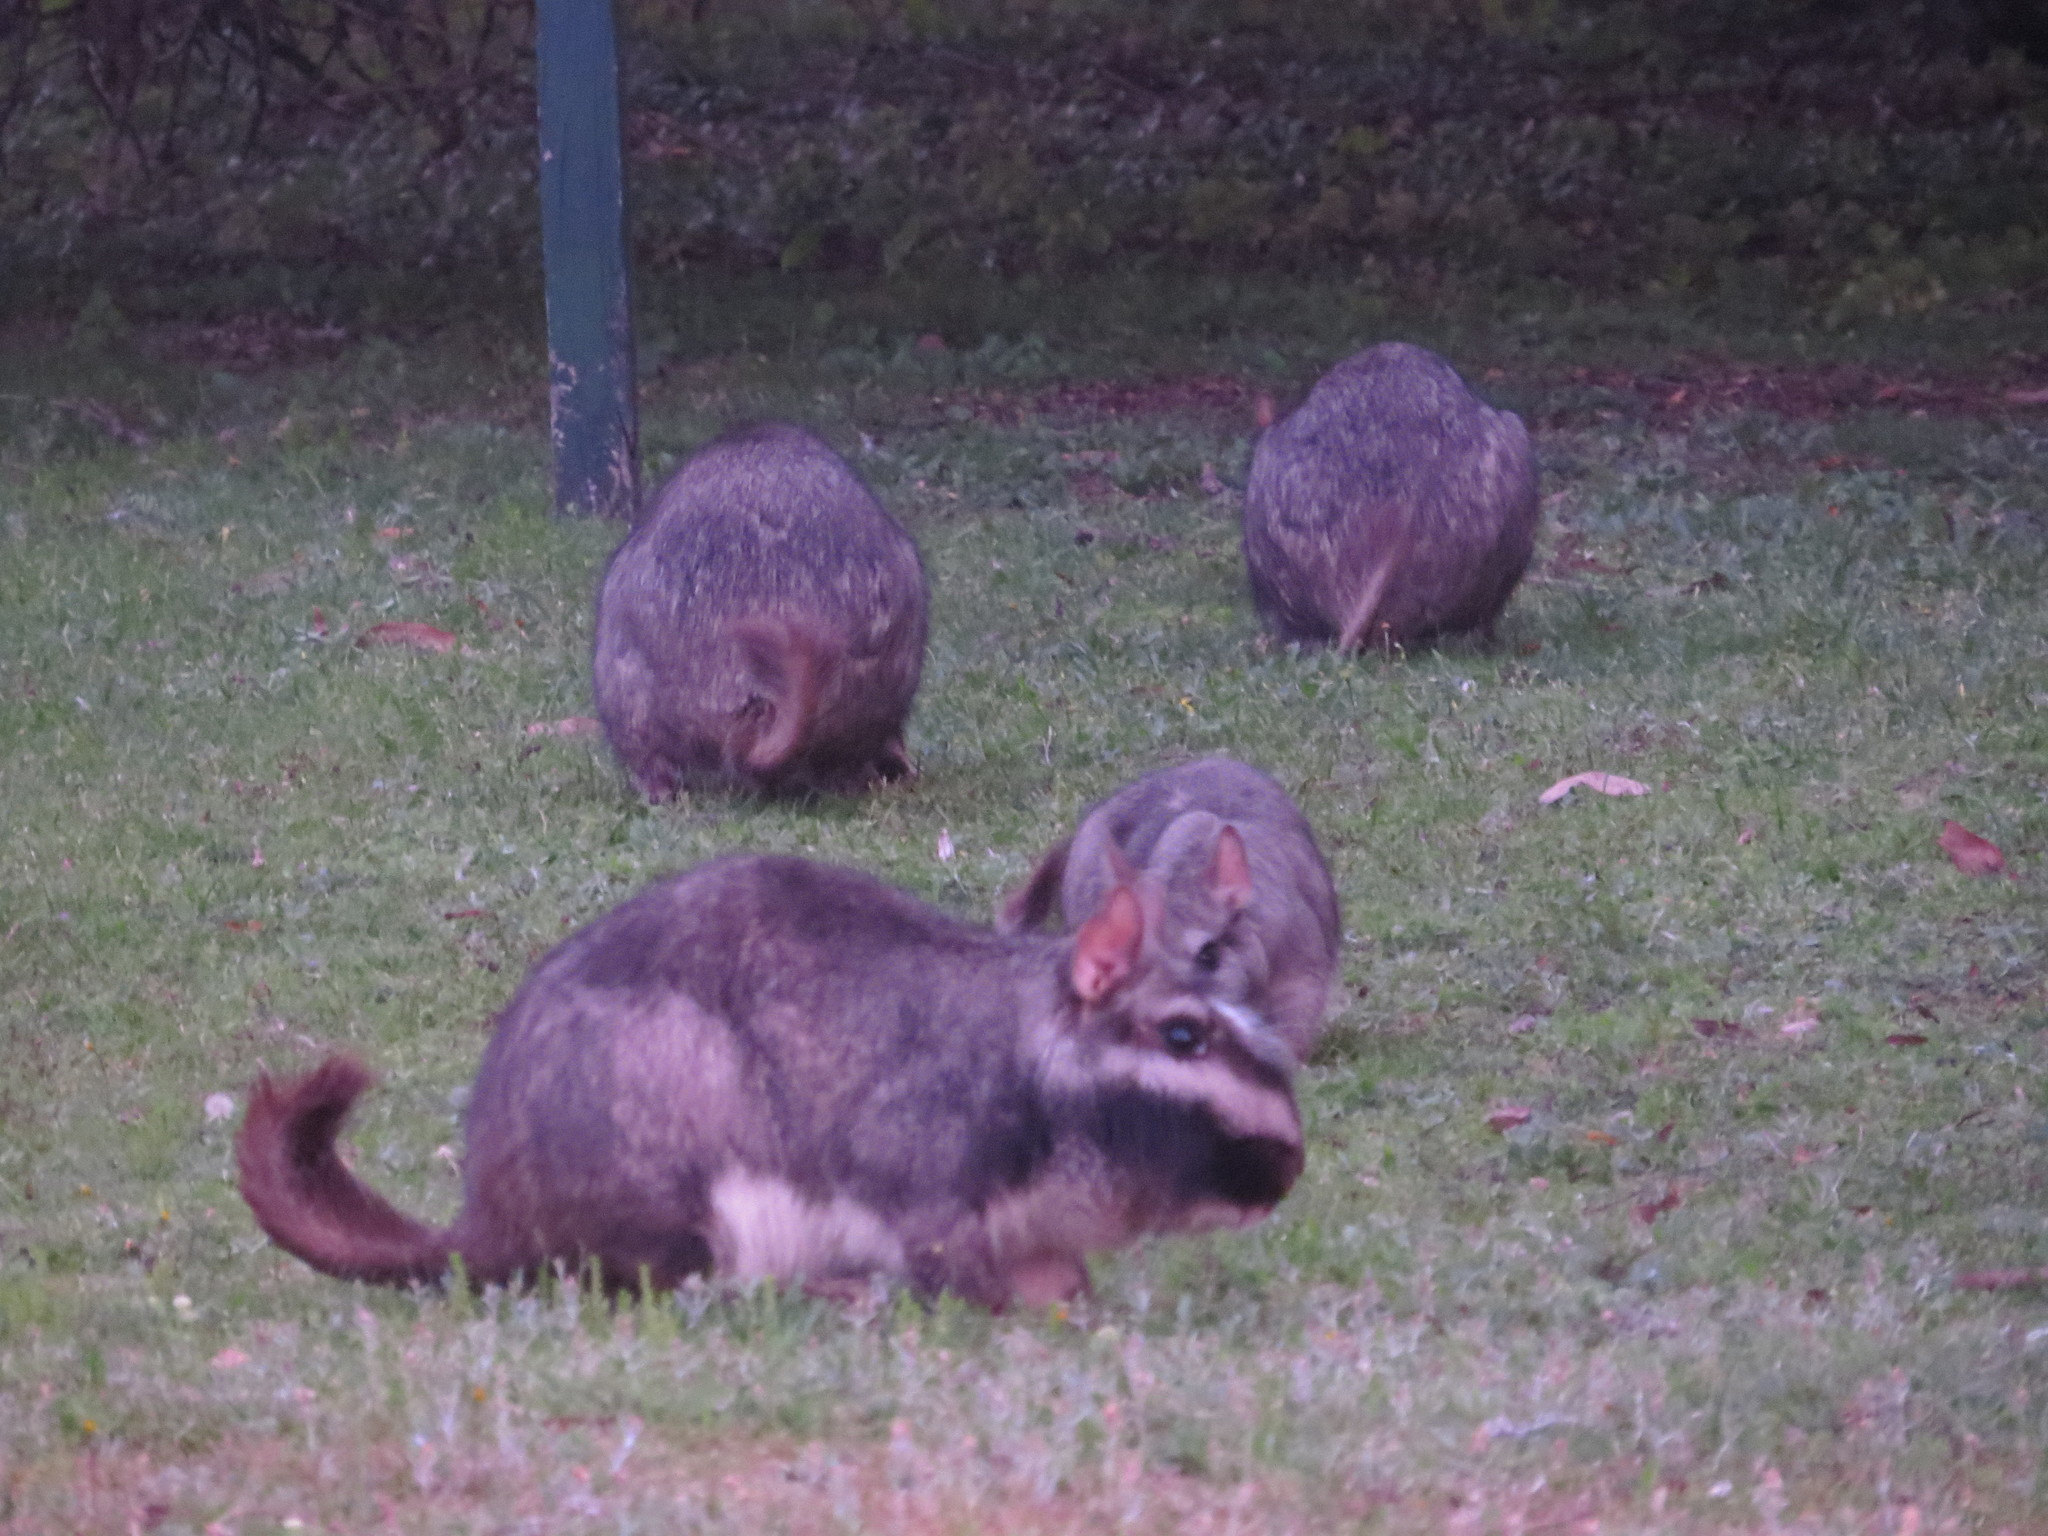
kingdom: Animalia
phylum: Chordata
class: Mammalia
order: Rodentia
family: Chinchillidae
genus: Lagostomus
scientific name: Lagostomus maximus
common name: Plains viscacha
